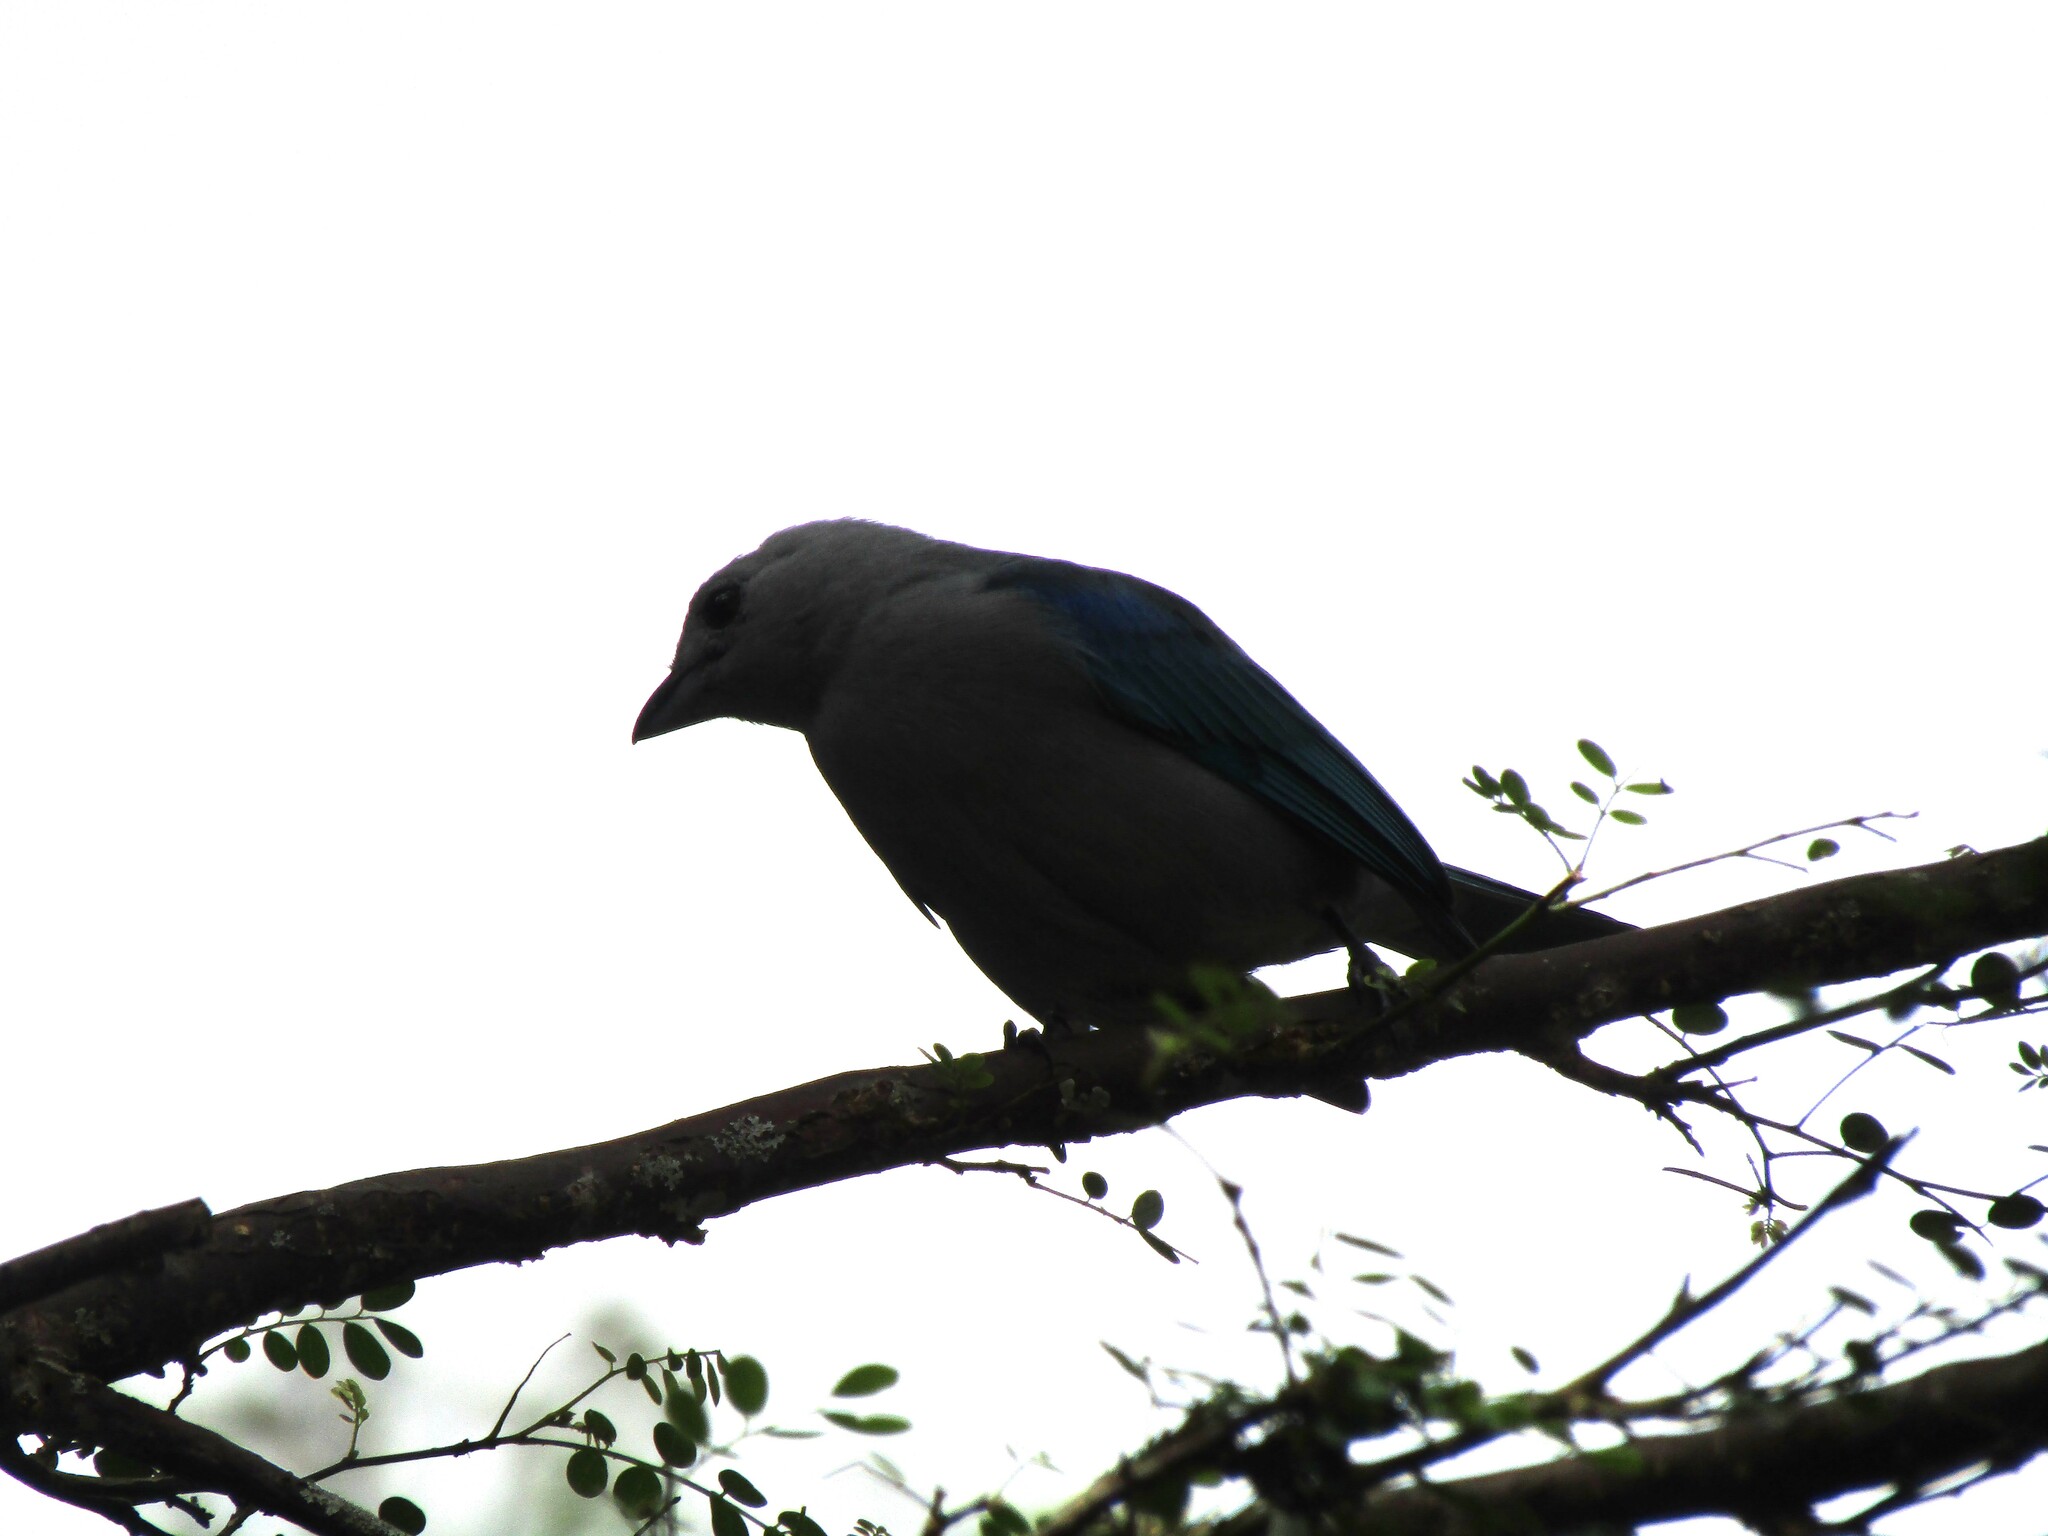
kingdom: Animalia
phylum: Chordata
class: Aves
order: Passeriformes
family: Thraupidae
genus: Thraupis
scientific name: Thraupis episcopus
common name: Blue-grey tanager
